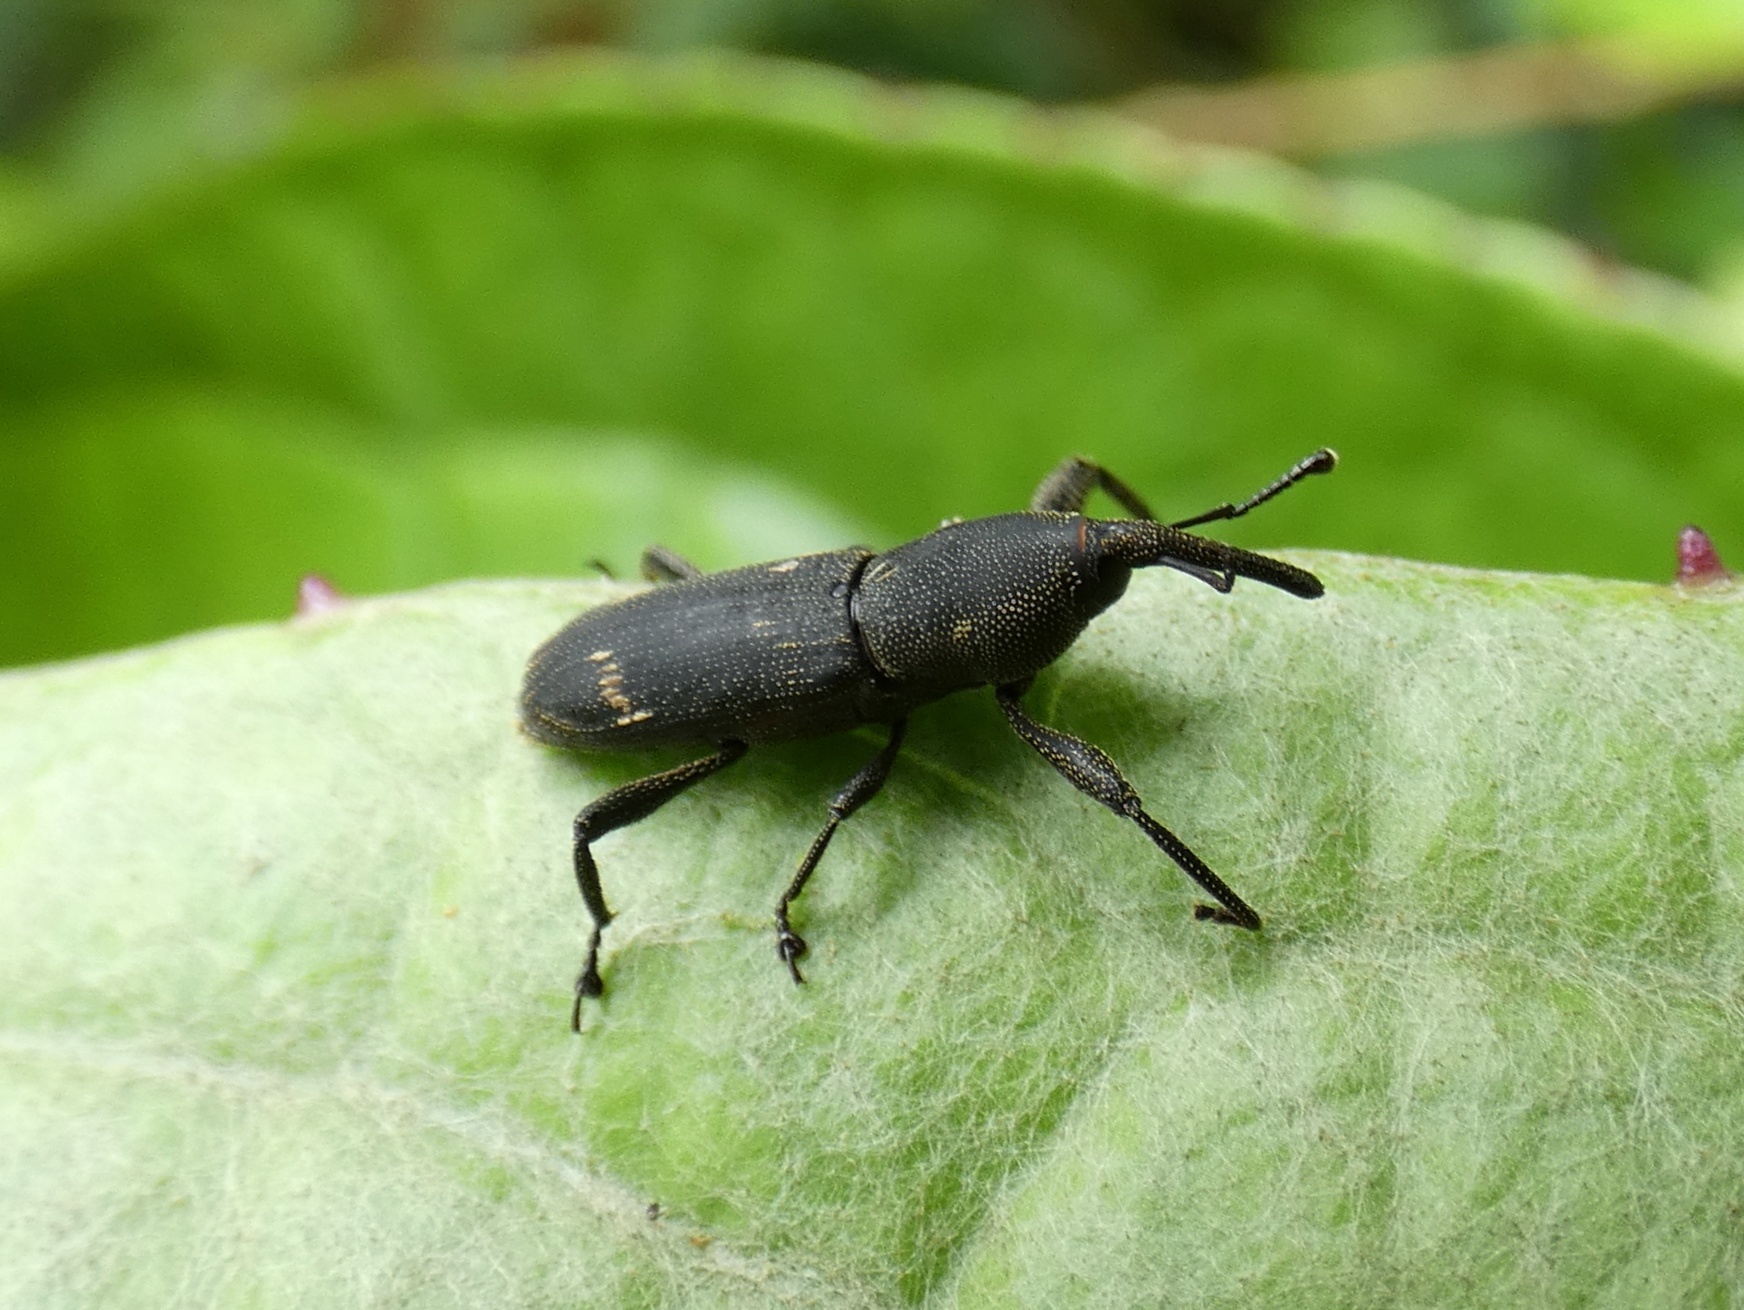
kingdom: Animalia
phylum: Arthropoda
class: Insecta
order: Coleoptera
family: Dryophthoridae
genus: Eucalandra
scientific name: Eucalandra alas
